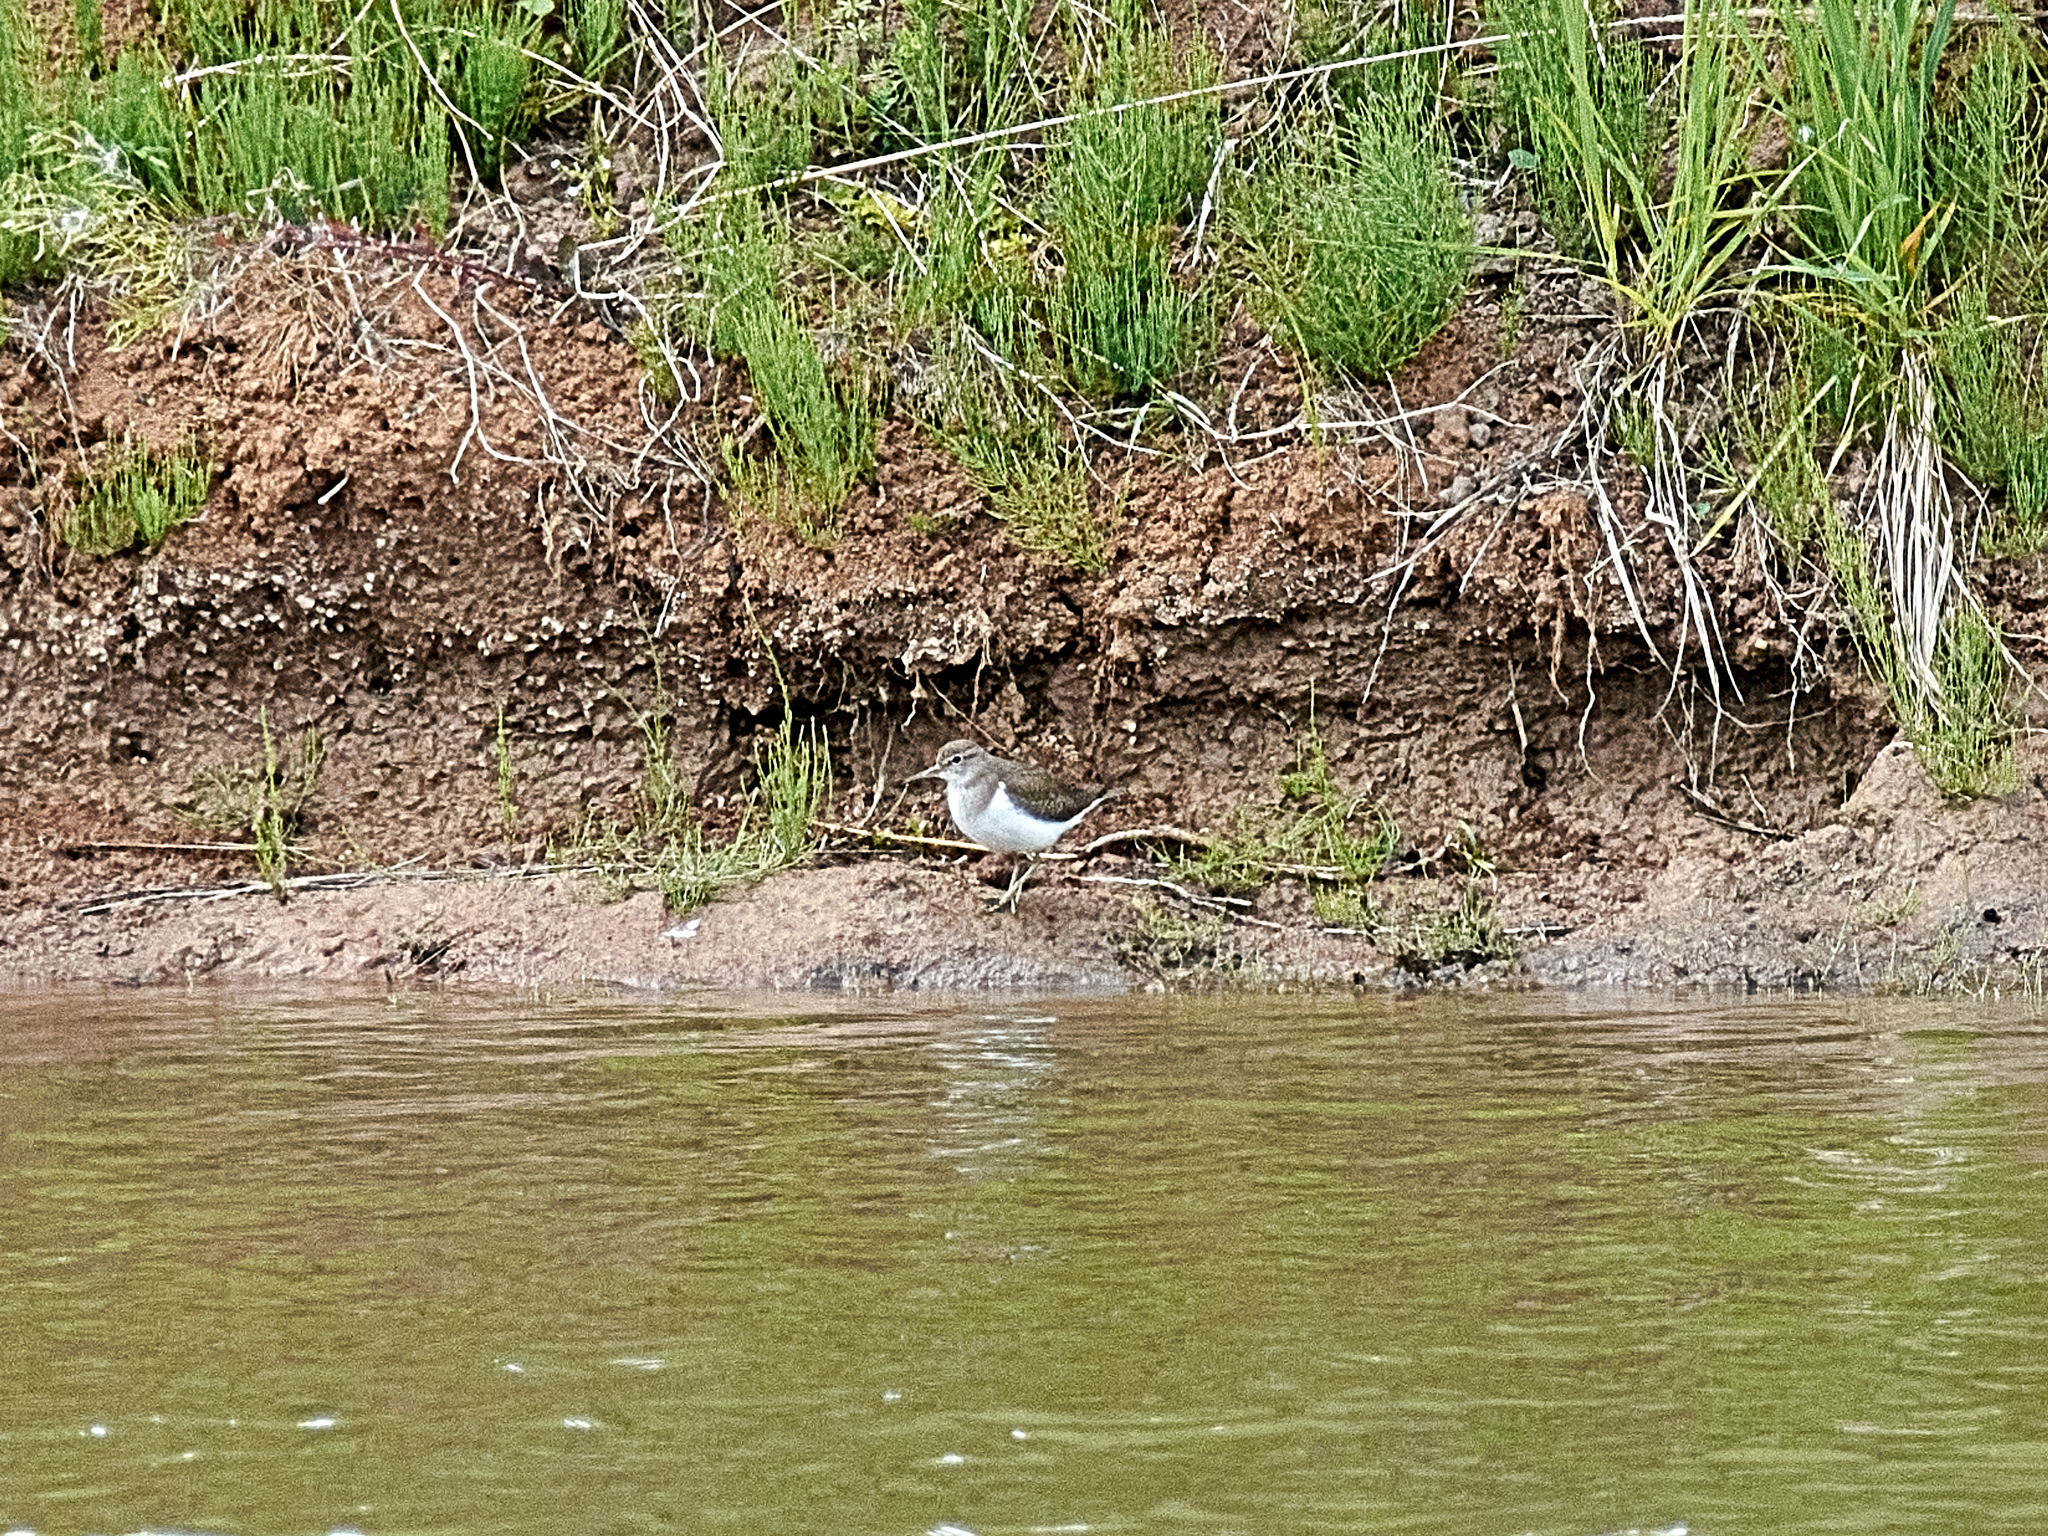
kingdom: Animalia
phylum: Chordata
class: Aves
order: Charadriiformes
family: Scolopacidae
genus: Actitis
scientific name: Actitis hypoleucos
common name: Common sandpiper
